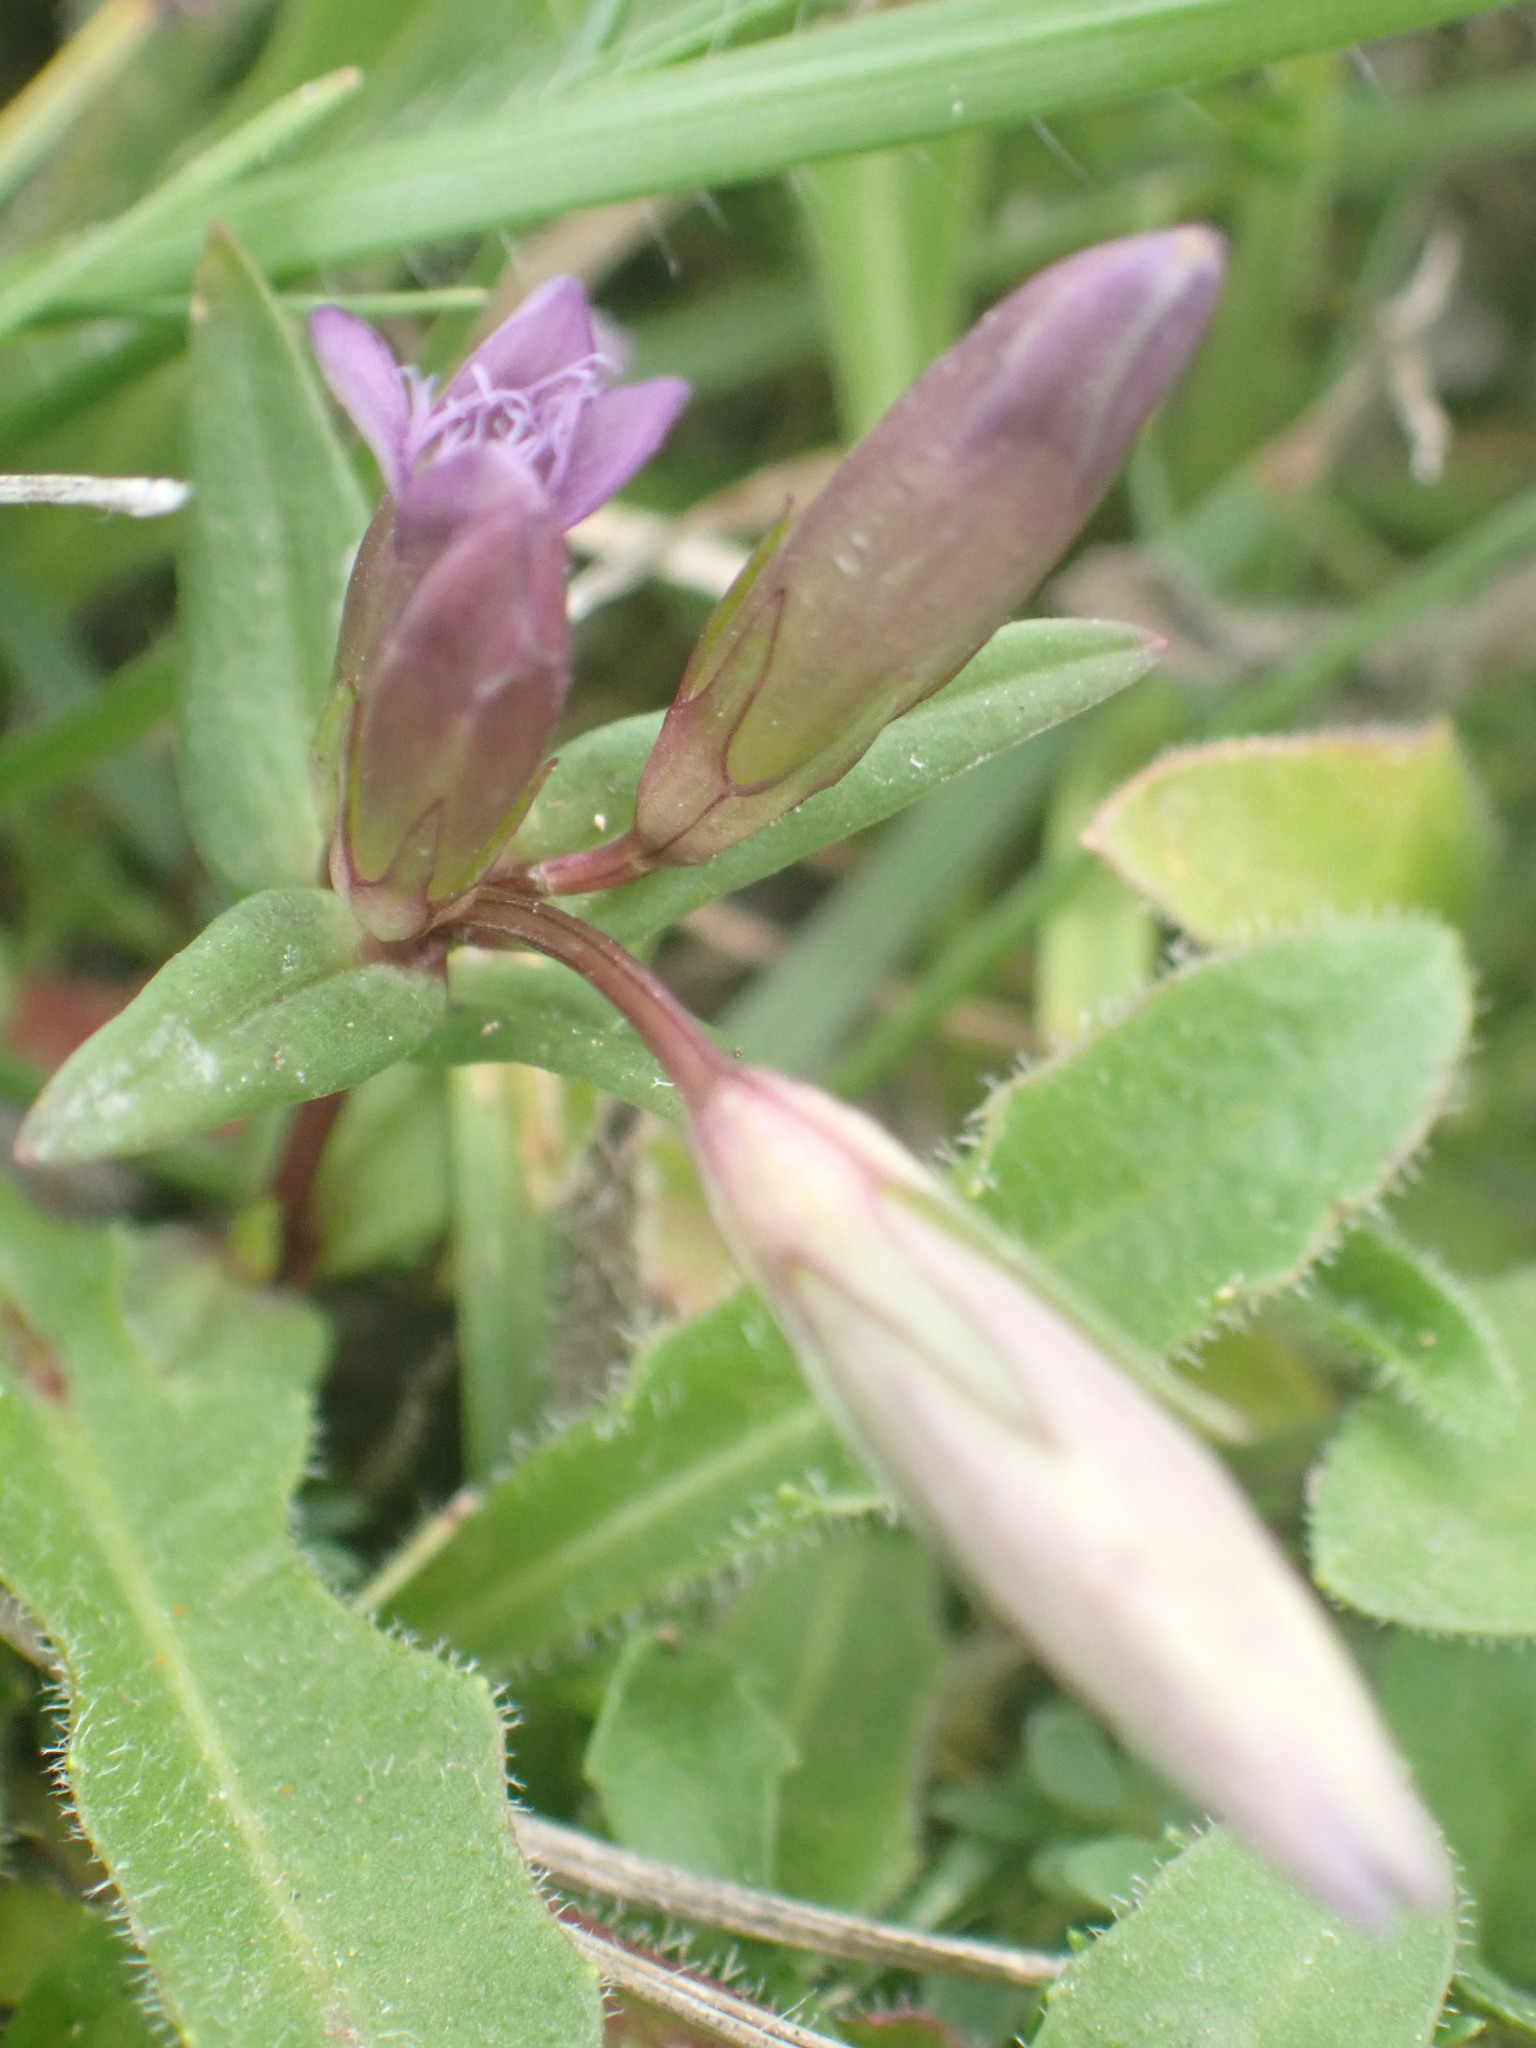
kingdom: Plantae
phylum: Tracheophyta
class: Magnoliopsida
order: Gentianales
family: Gentianaceae
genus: Gentianella
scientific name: Gentianella amarella
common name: Autumn gentian
